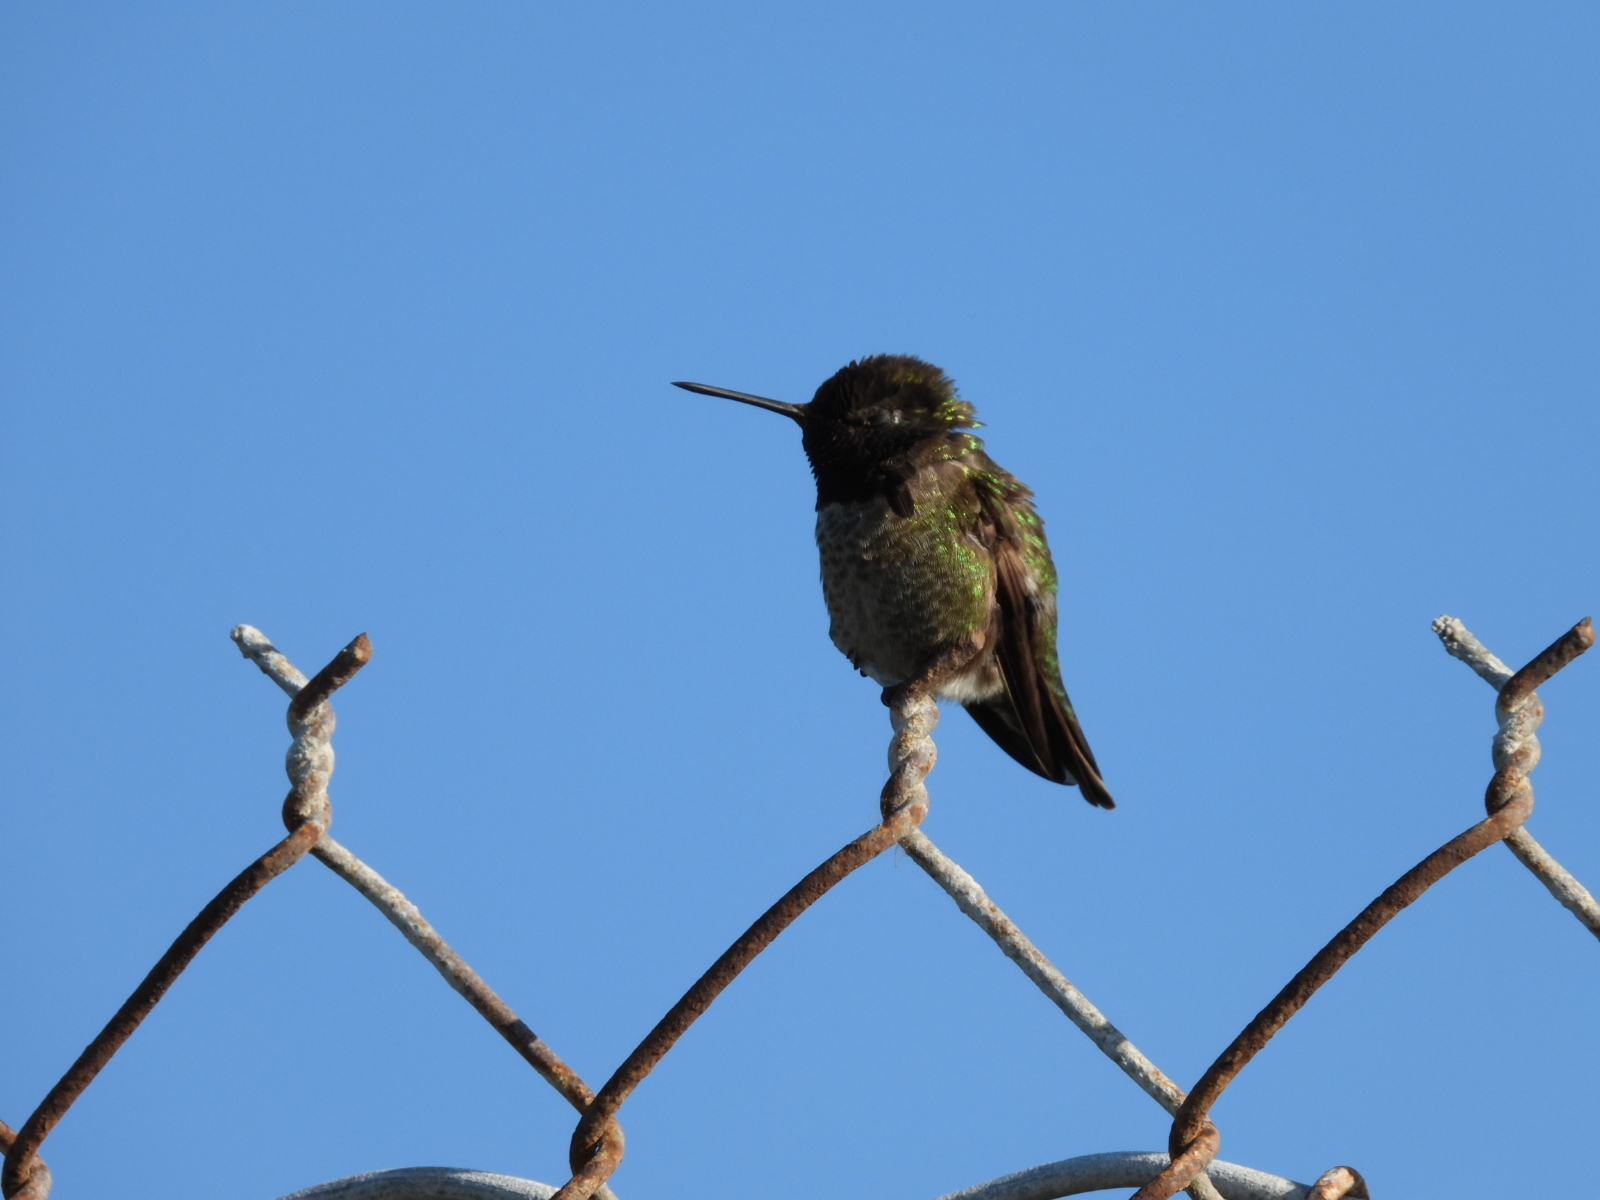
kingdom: Animalia
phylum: Chordata
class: Aves
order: Apodiformes
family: Trochilidae
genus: Calypte
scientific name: Calypte anna
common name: Anna's hummingbird
